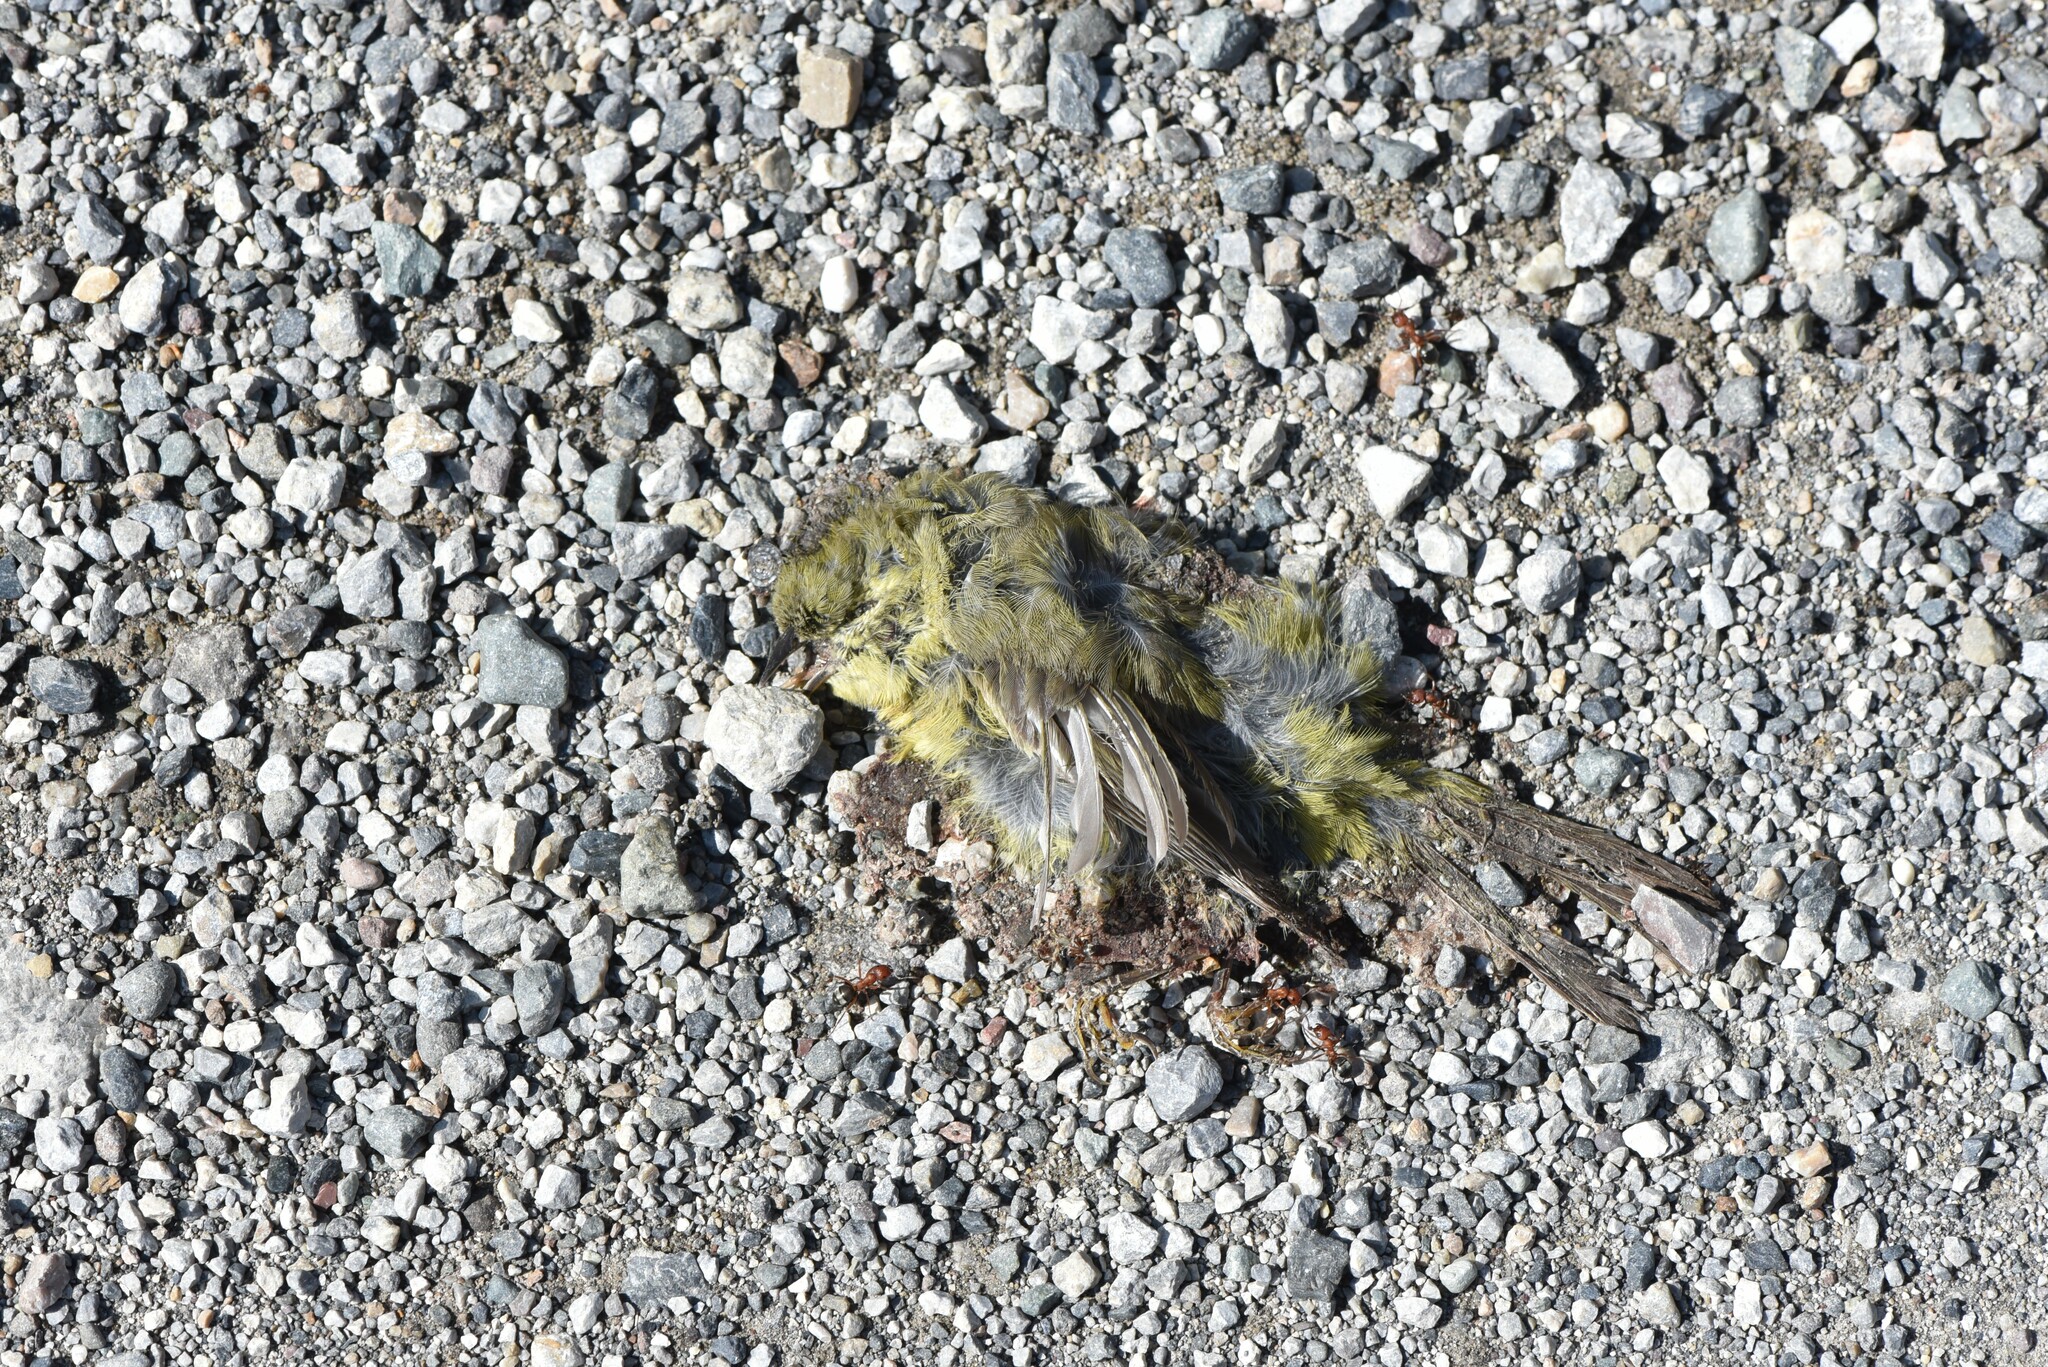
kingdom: Animalia
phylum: Chordata
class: Aves
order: Passeriformes
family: Parulidae
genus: Leiothlypis
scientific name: Leiothlypis celata
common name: Orange-crowned warbler
